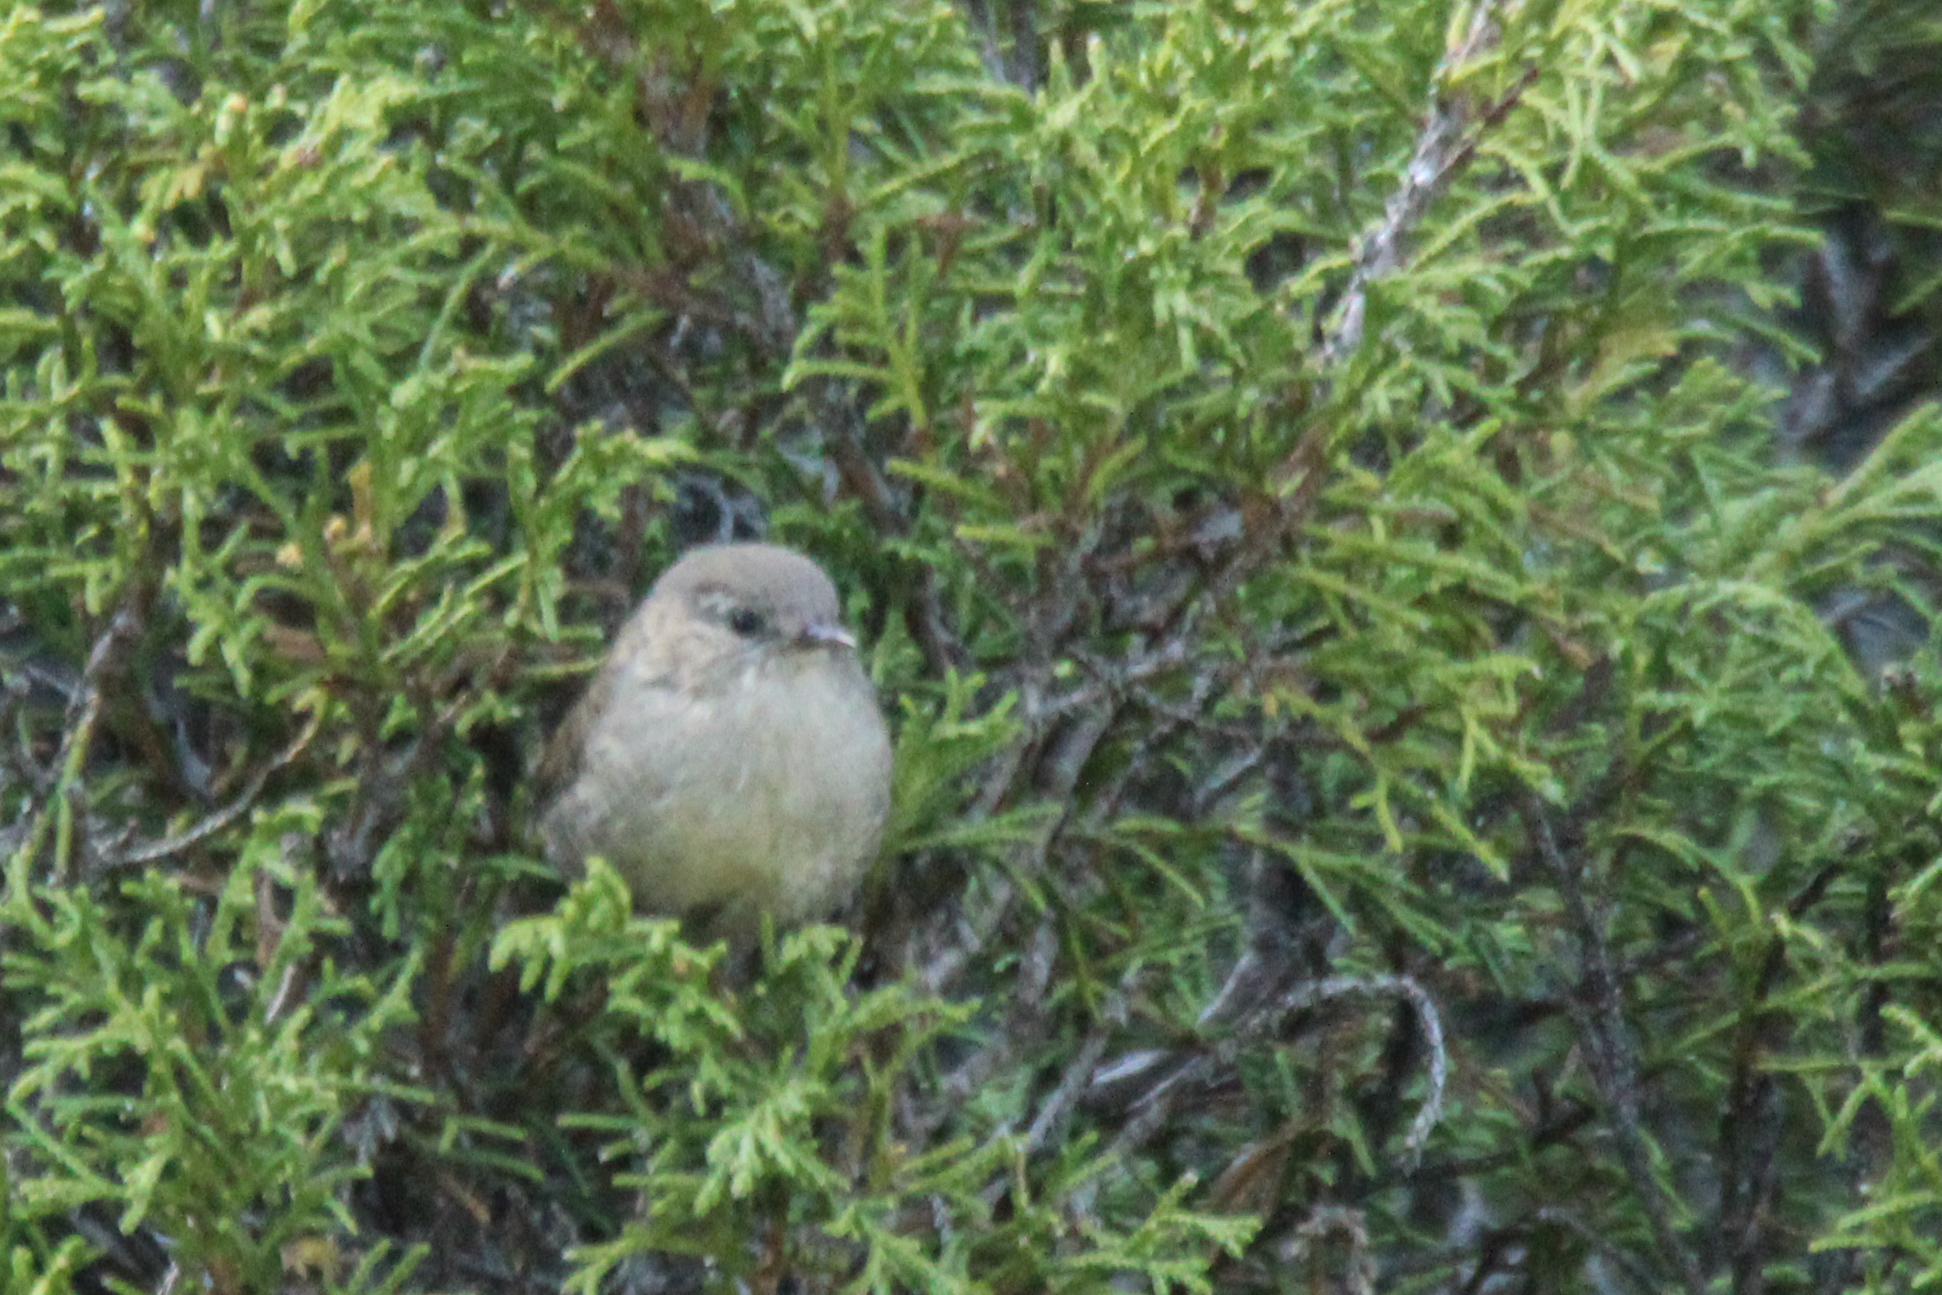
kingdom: Animalia
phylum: Chordata
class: Aves
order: Passeriformes
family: Troglodytidae
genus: Troglodytes
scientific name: Troglodytes troglodytes
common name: Eurasian wren
